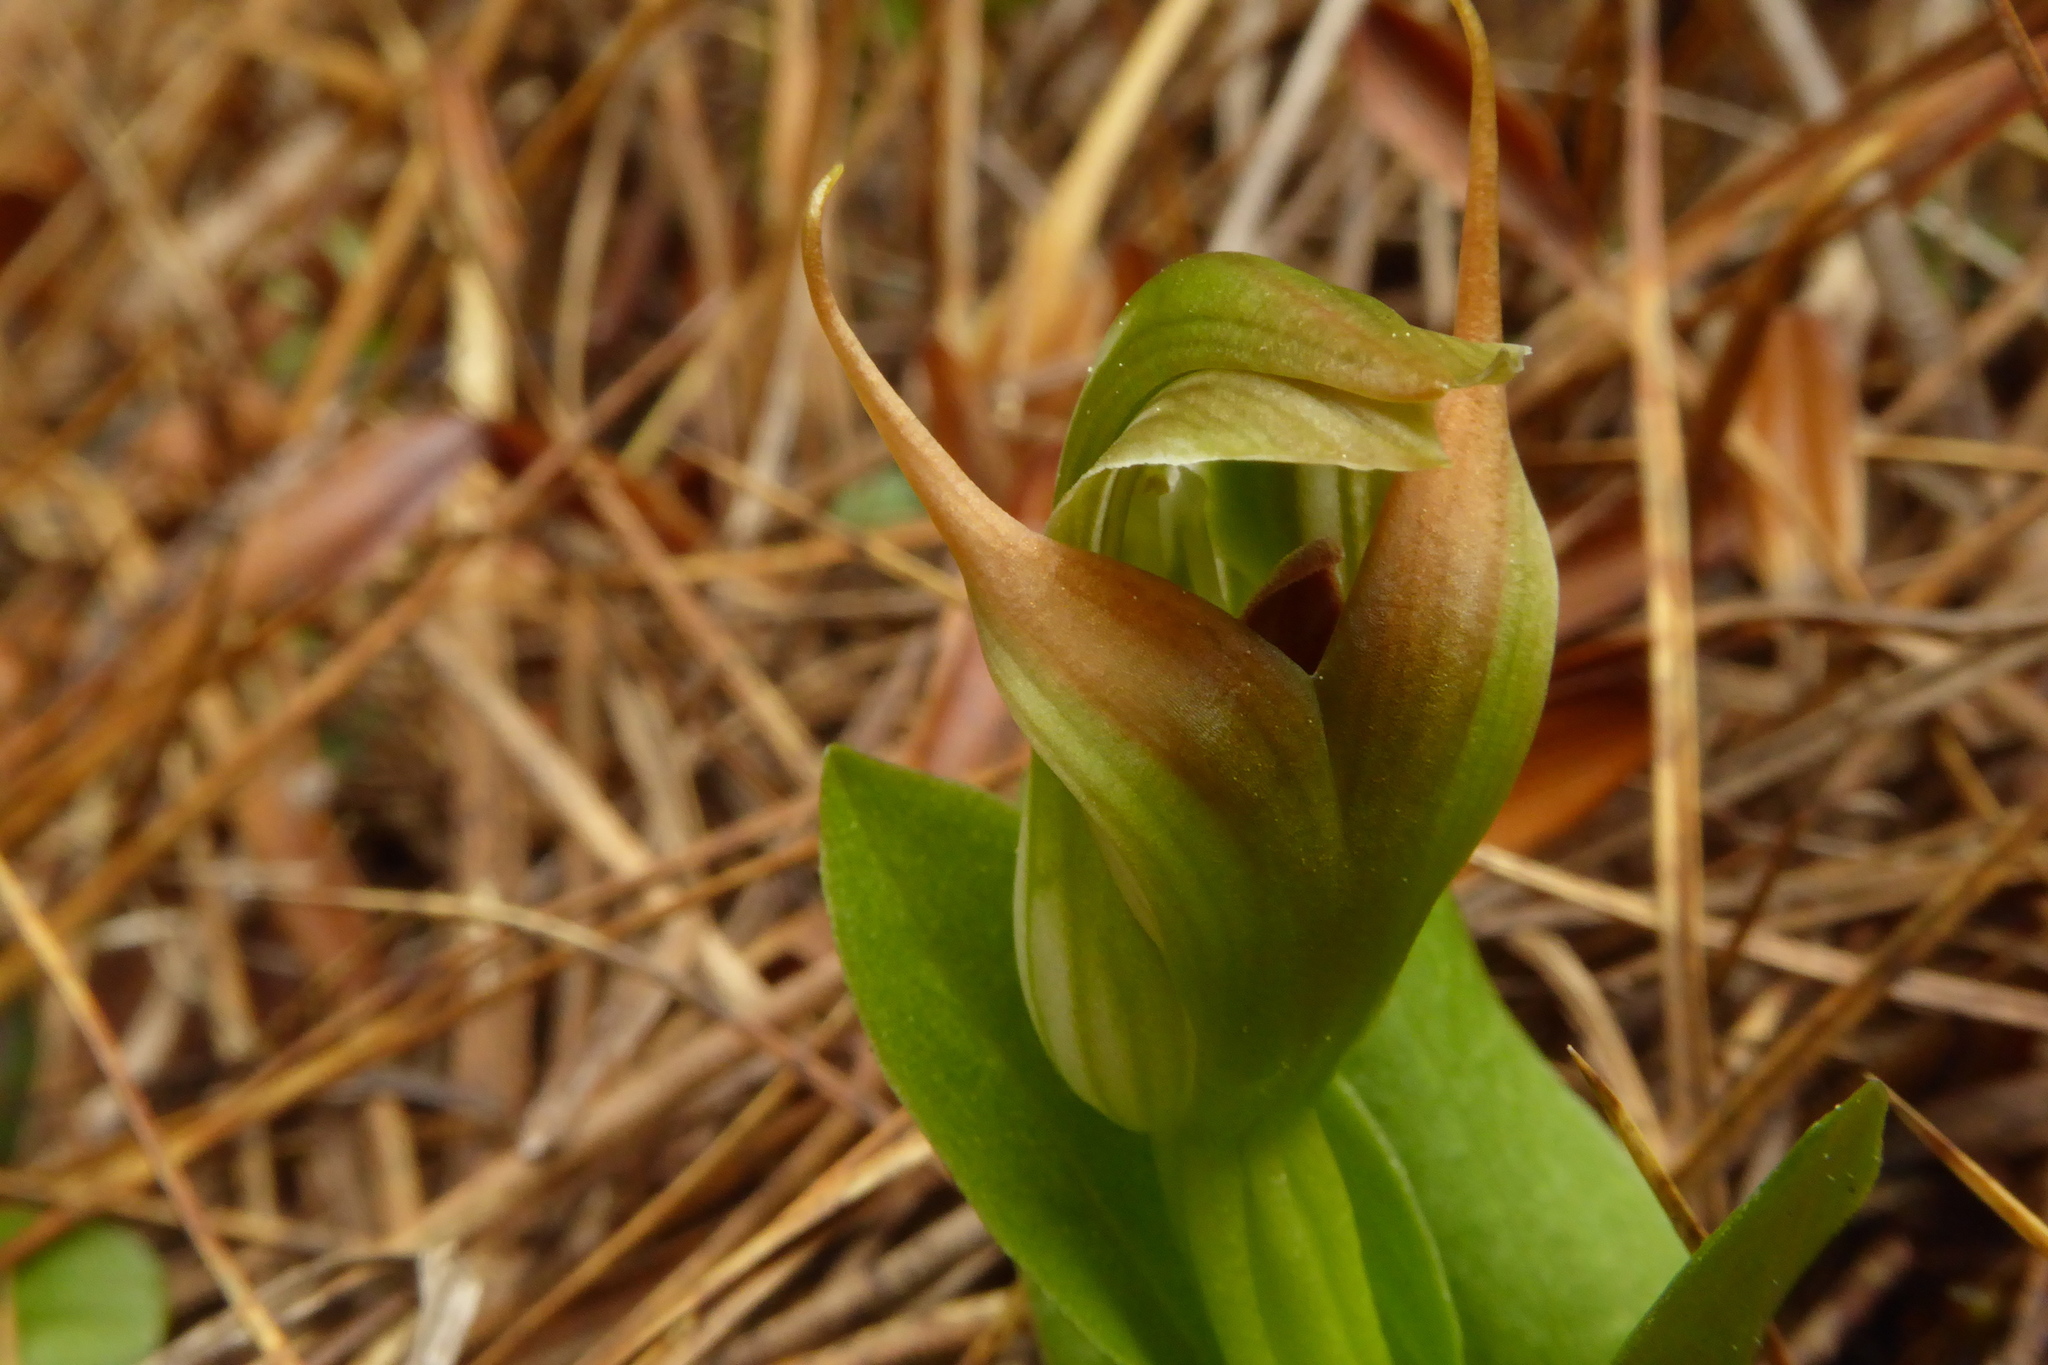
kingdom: Plantae
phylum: Tracheophyta
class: Liliopsida
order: Asparagales
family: Orchidaceae
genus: Pterostylis
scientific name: Pterostylis venosa
